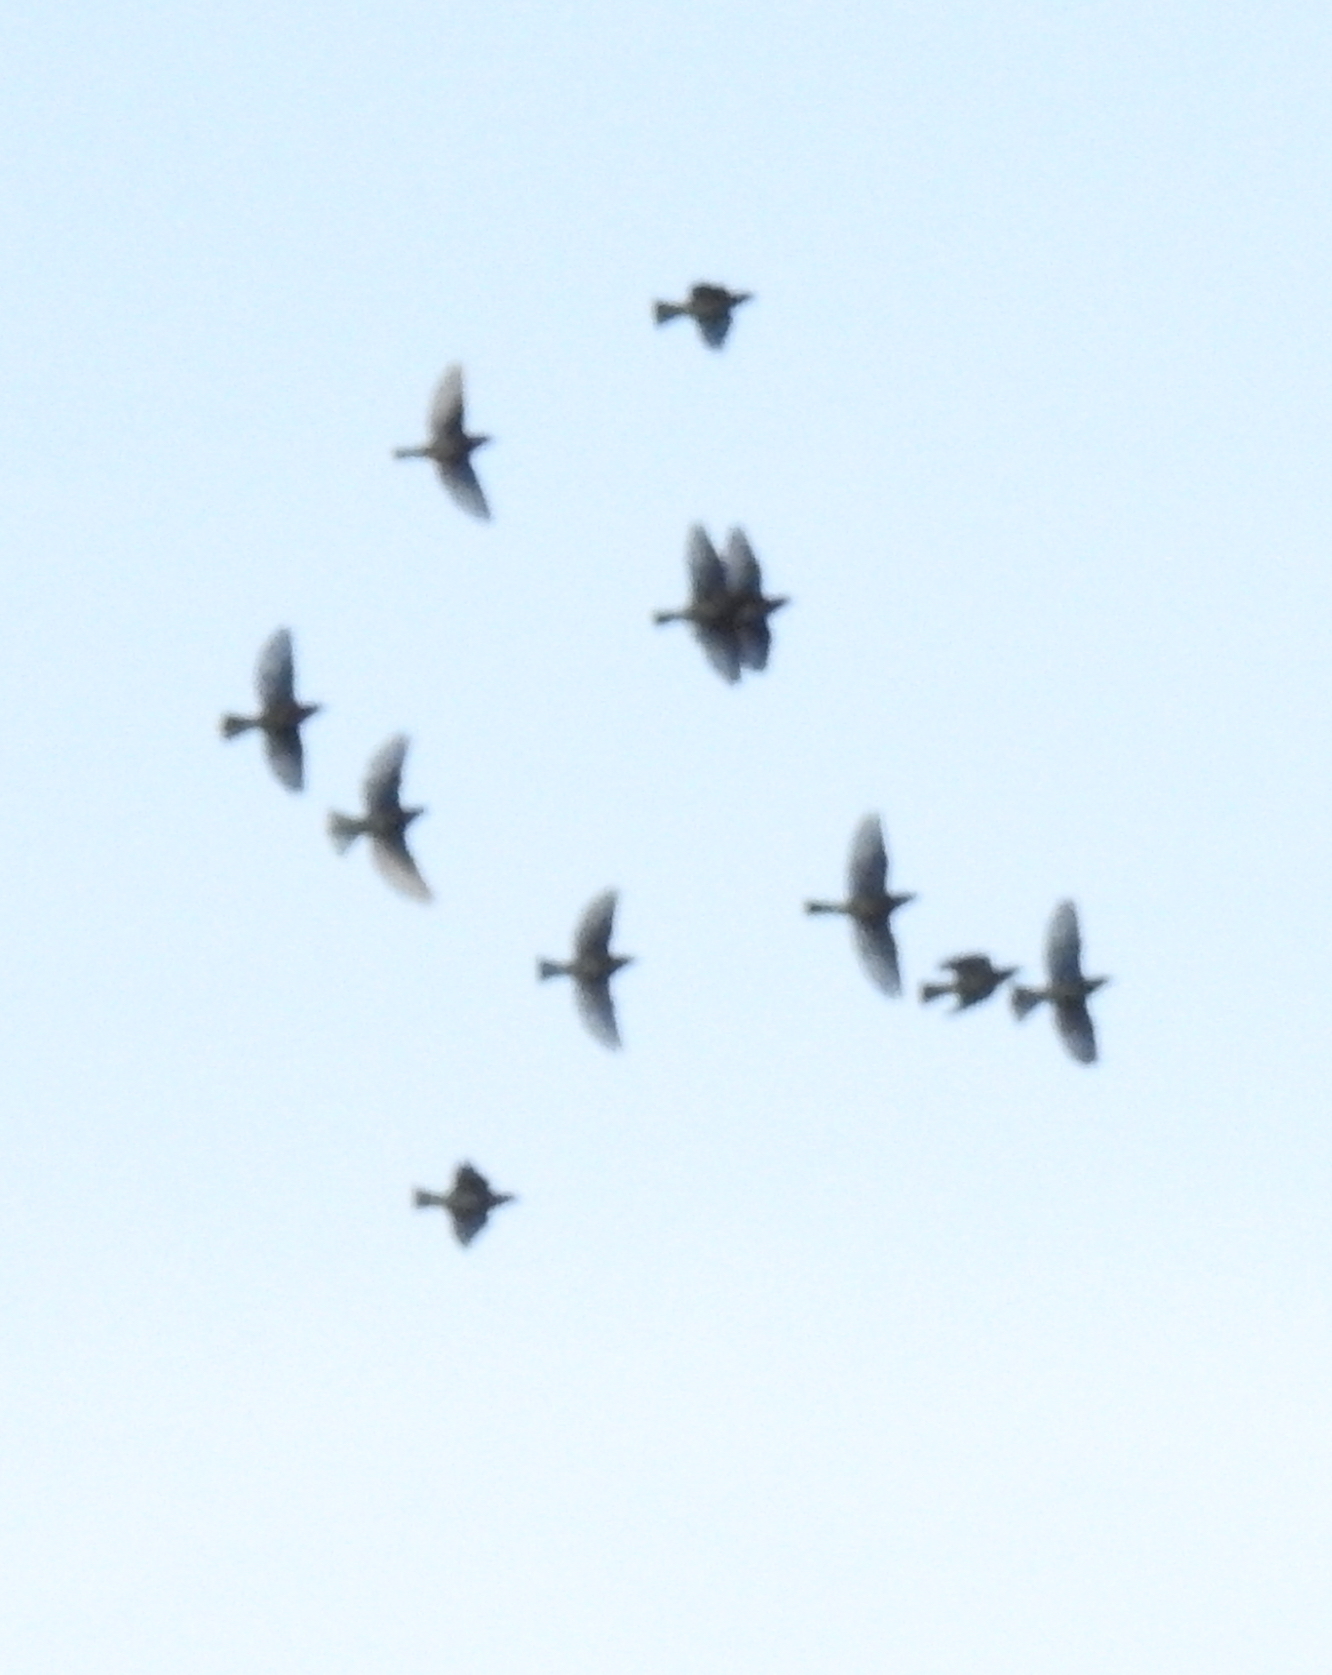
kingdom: Animalia
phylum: Chordata
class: Aves
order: Passeriformes
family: Bombycillidae
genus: Bombycilla
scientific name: Bombycilla cedrorum
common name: Cedar waxwing
